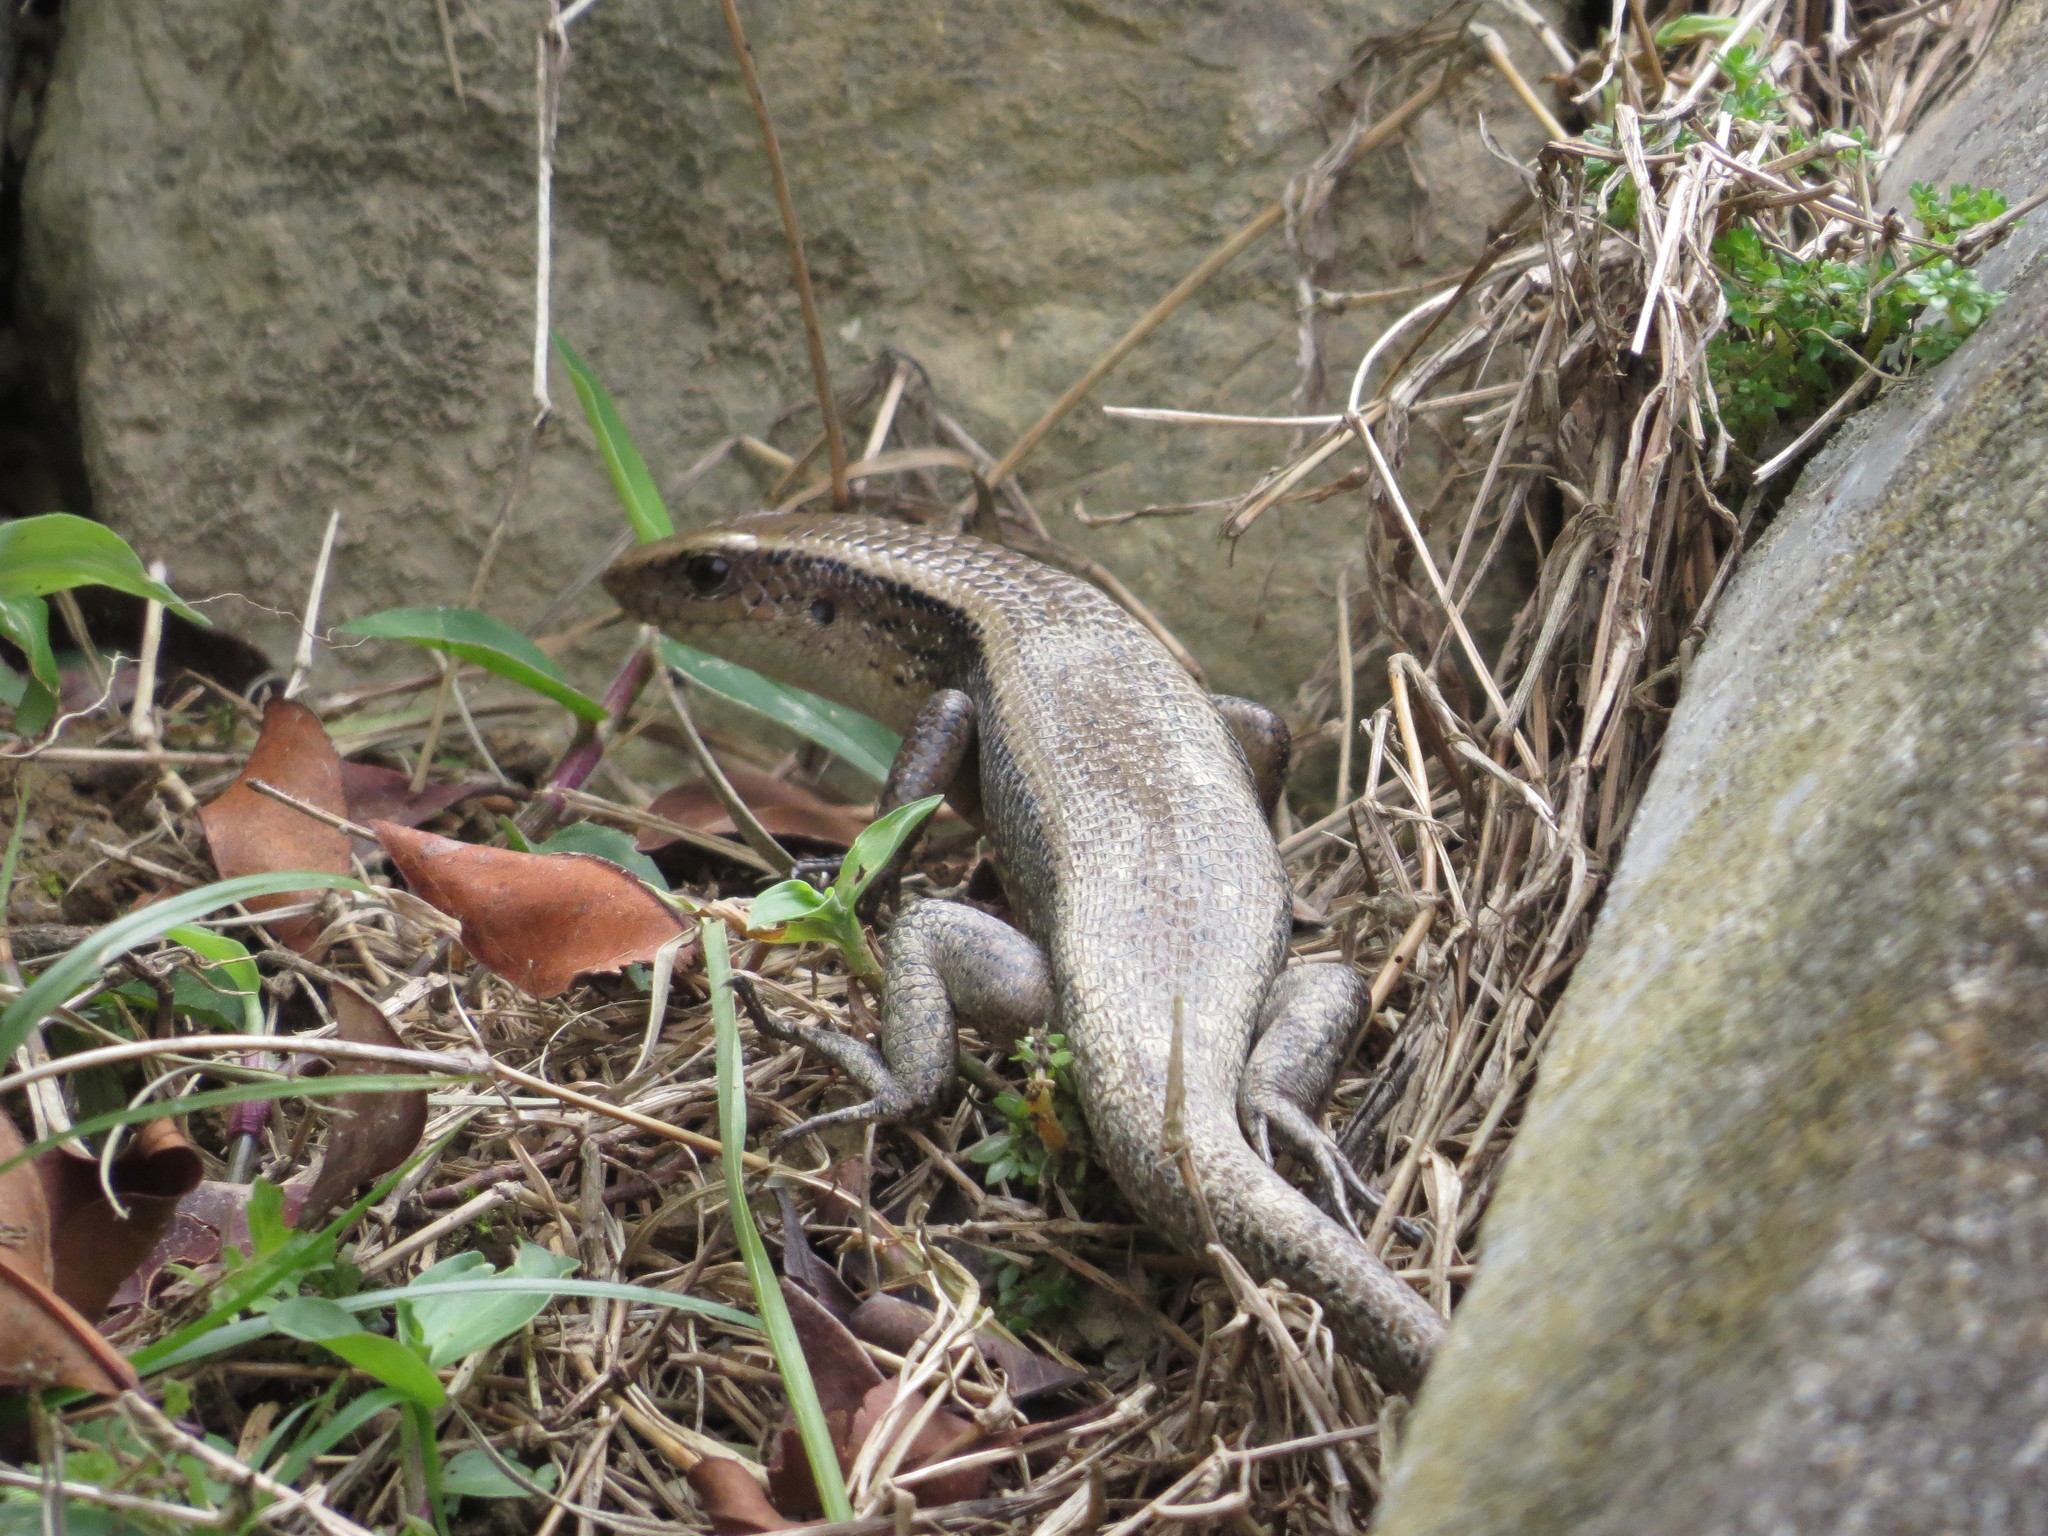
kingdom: Animalia
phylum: Chordata
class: Squamata
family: Scincidae
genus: Eutropis
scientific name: Eutropis multifasciata
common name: Common mabuya
